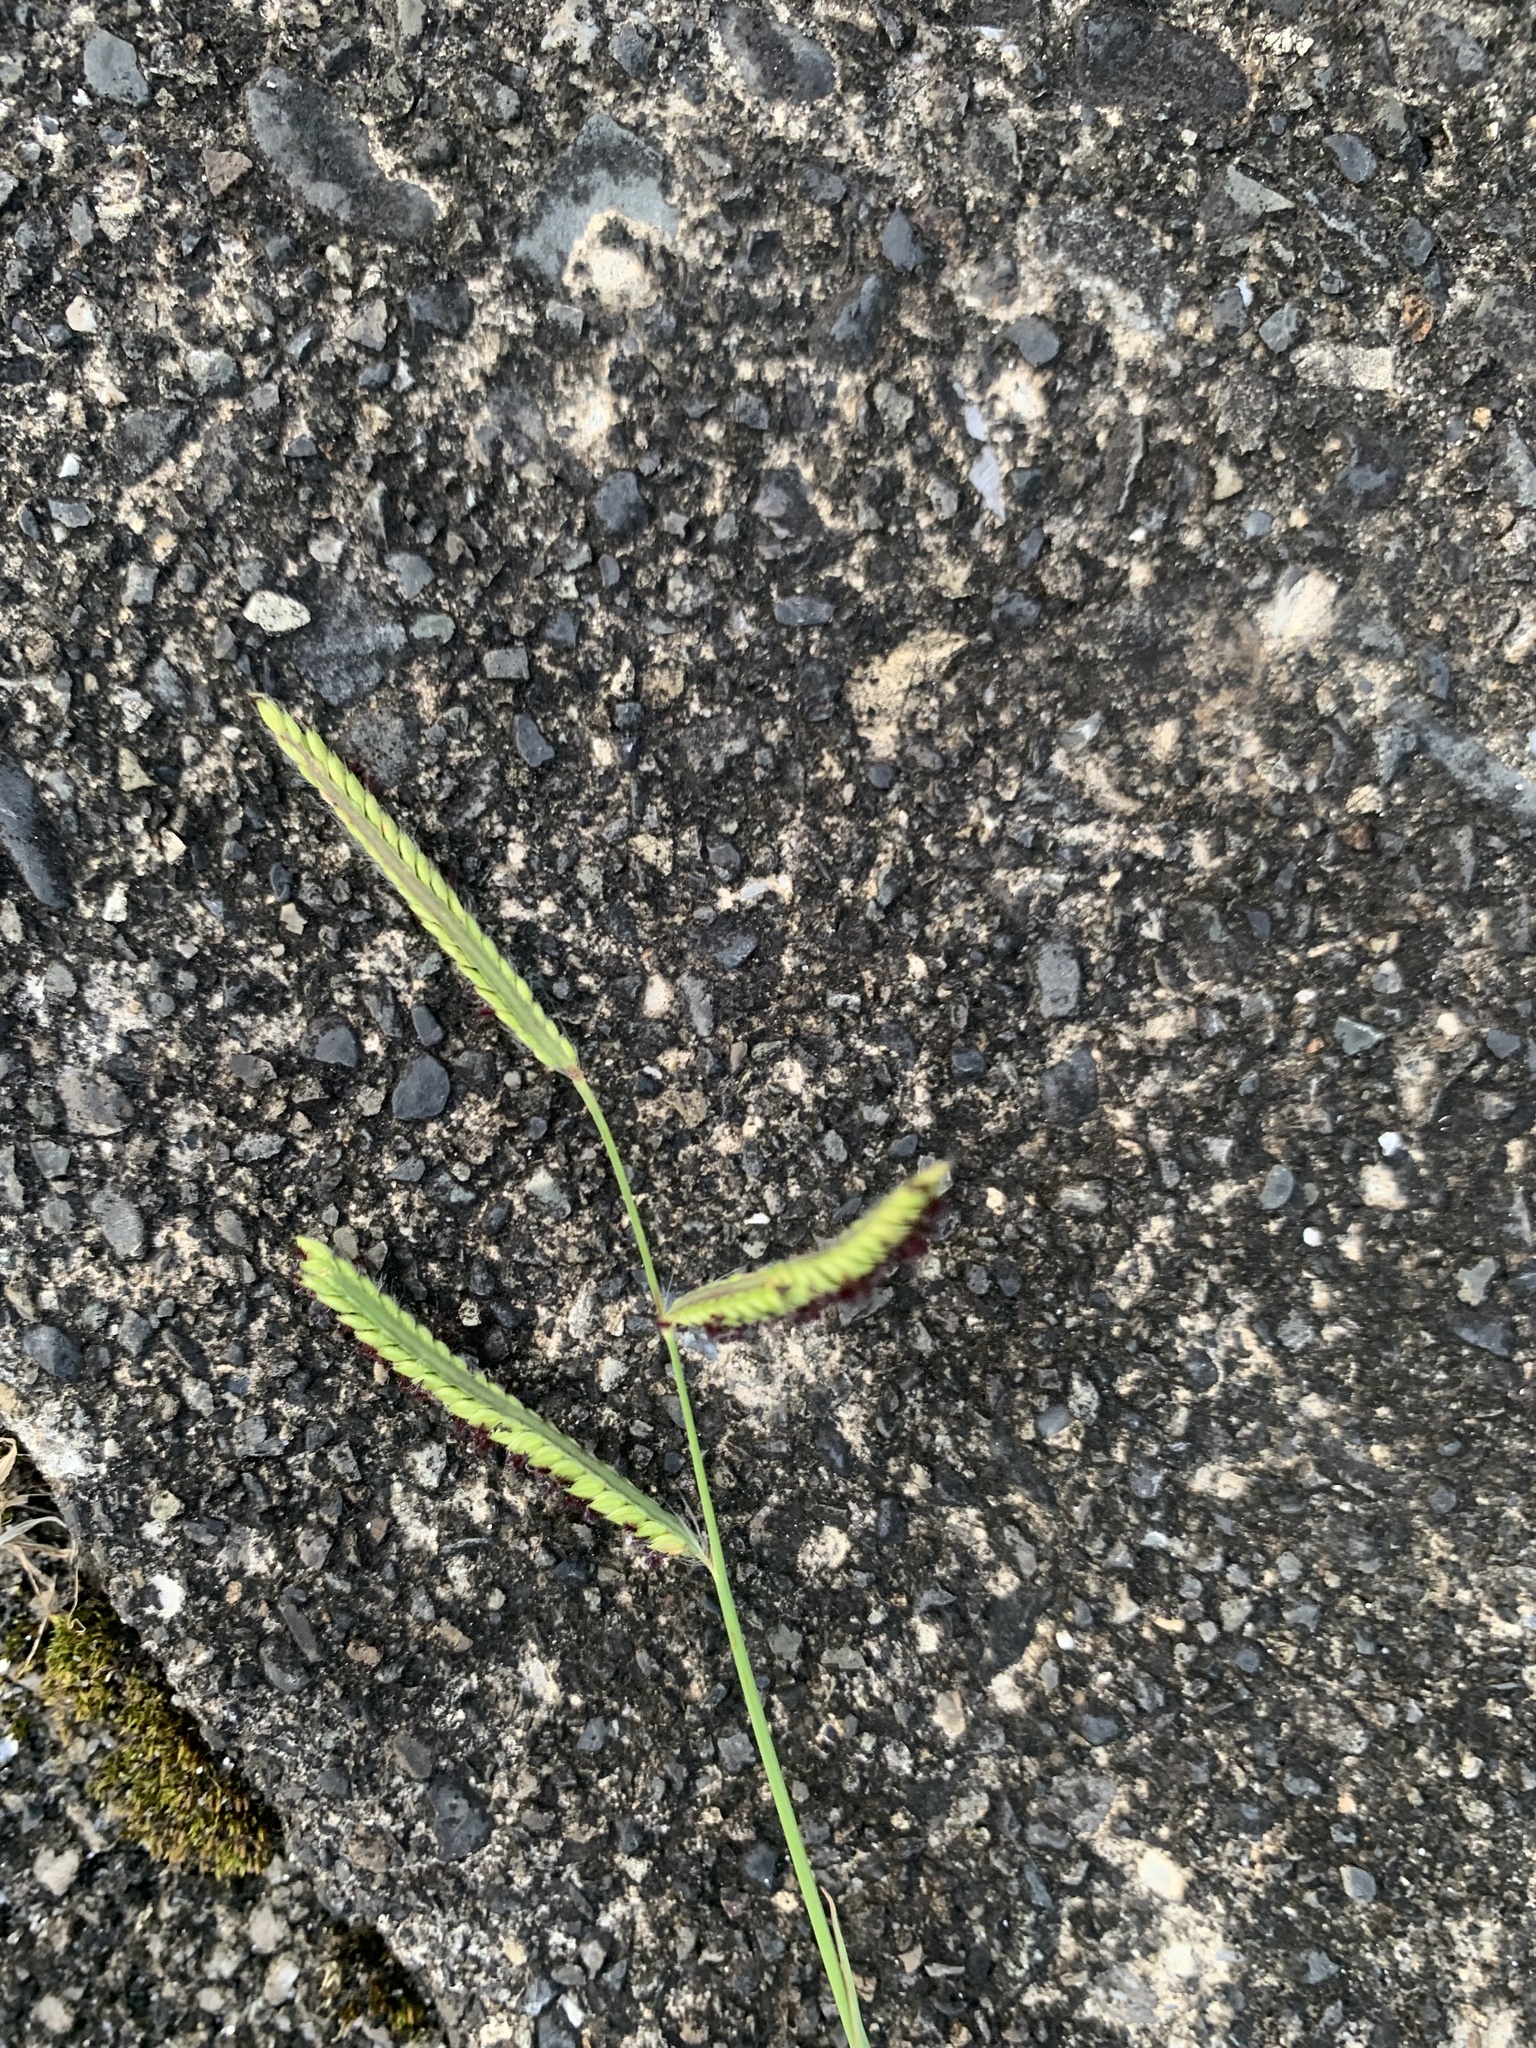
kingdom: Plantae
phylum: Tracheophyta
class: Liliopsida
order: Poales
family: Poaceae
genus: Paspalum
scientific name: Paspalum dilatatum
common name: Dallisgrass
